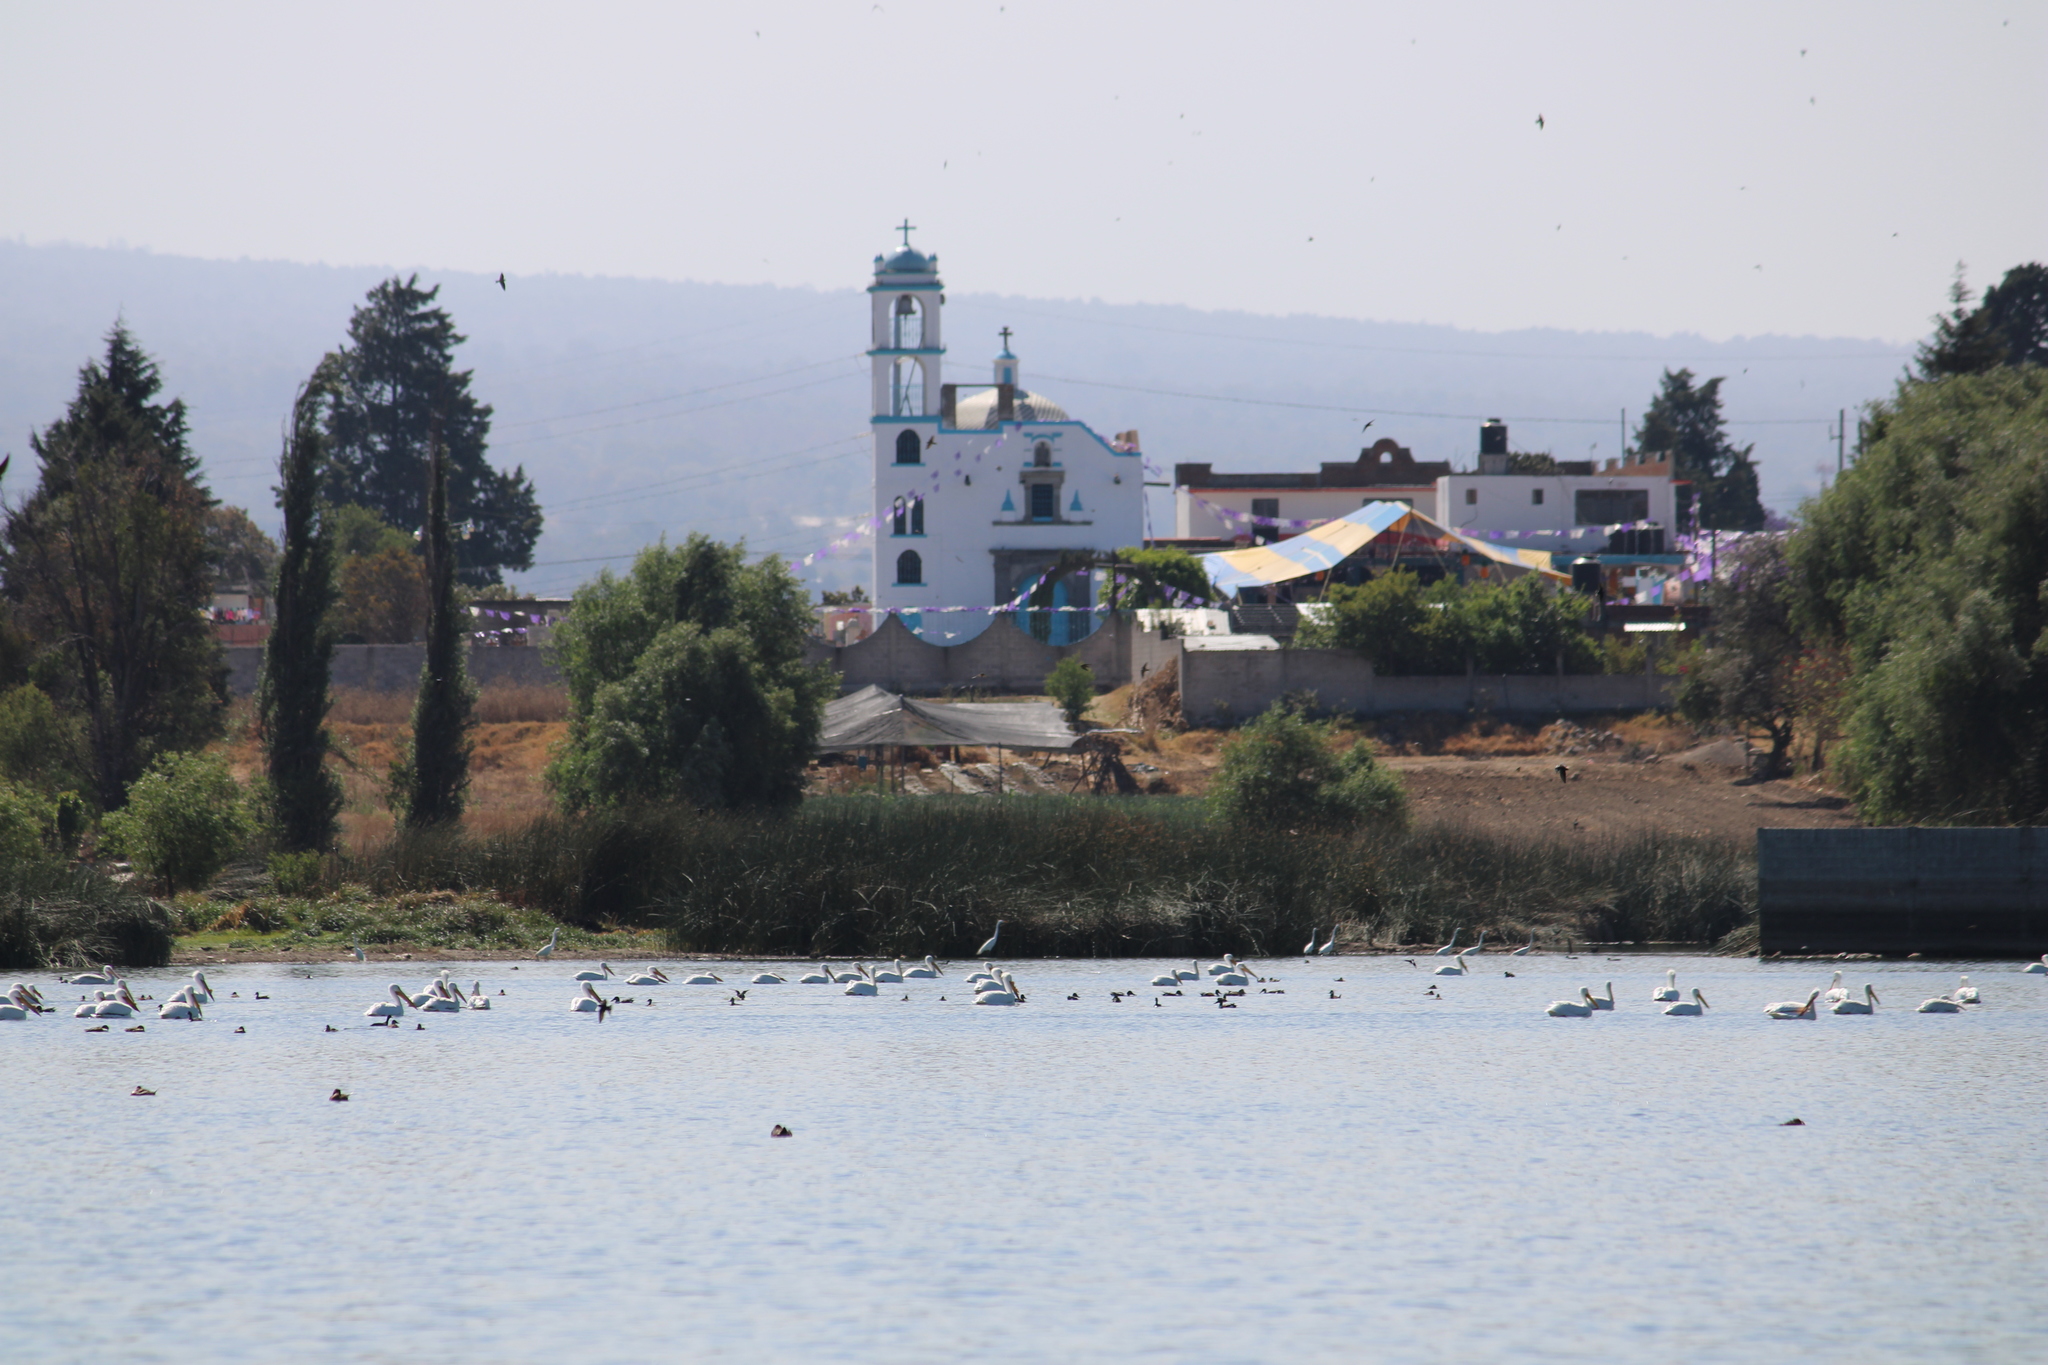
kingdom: Animalia
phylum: Chordata
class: Aves
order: Pelecaniformes
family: Pelecanidae
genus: Pelecanus
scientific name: Pelecanus erythrorhynchos
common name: American white pelican
